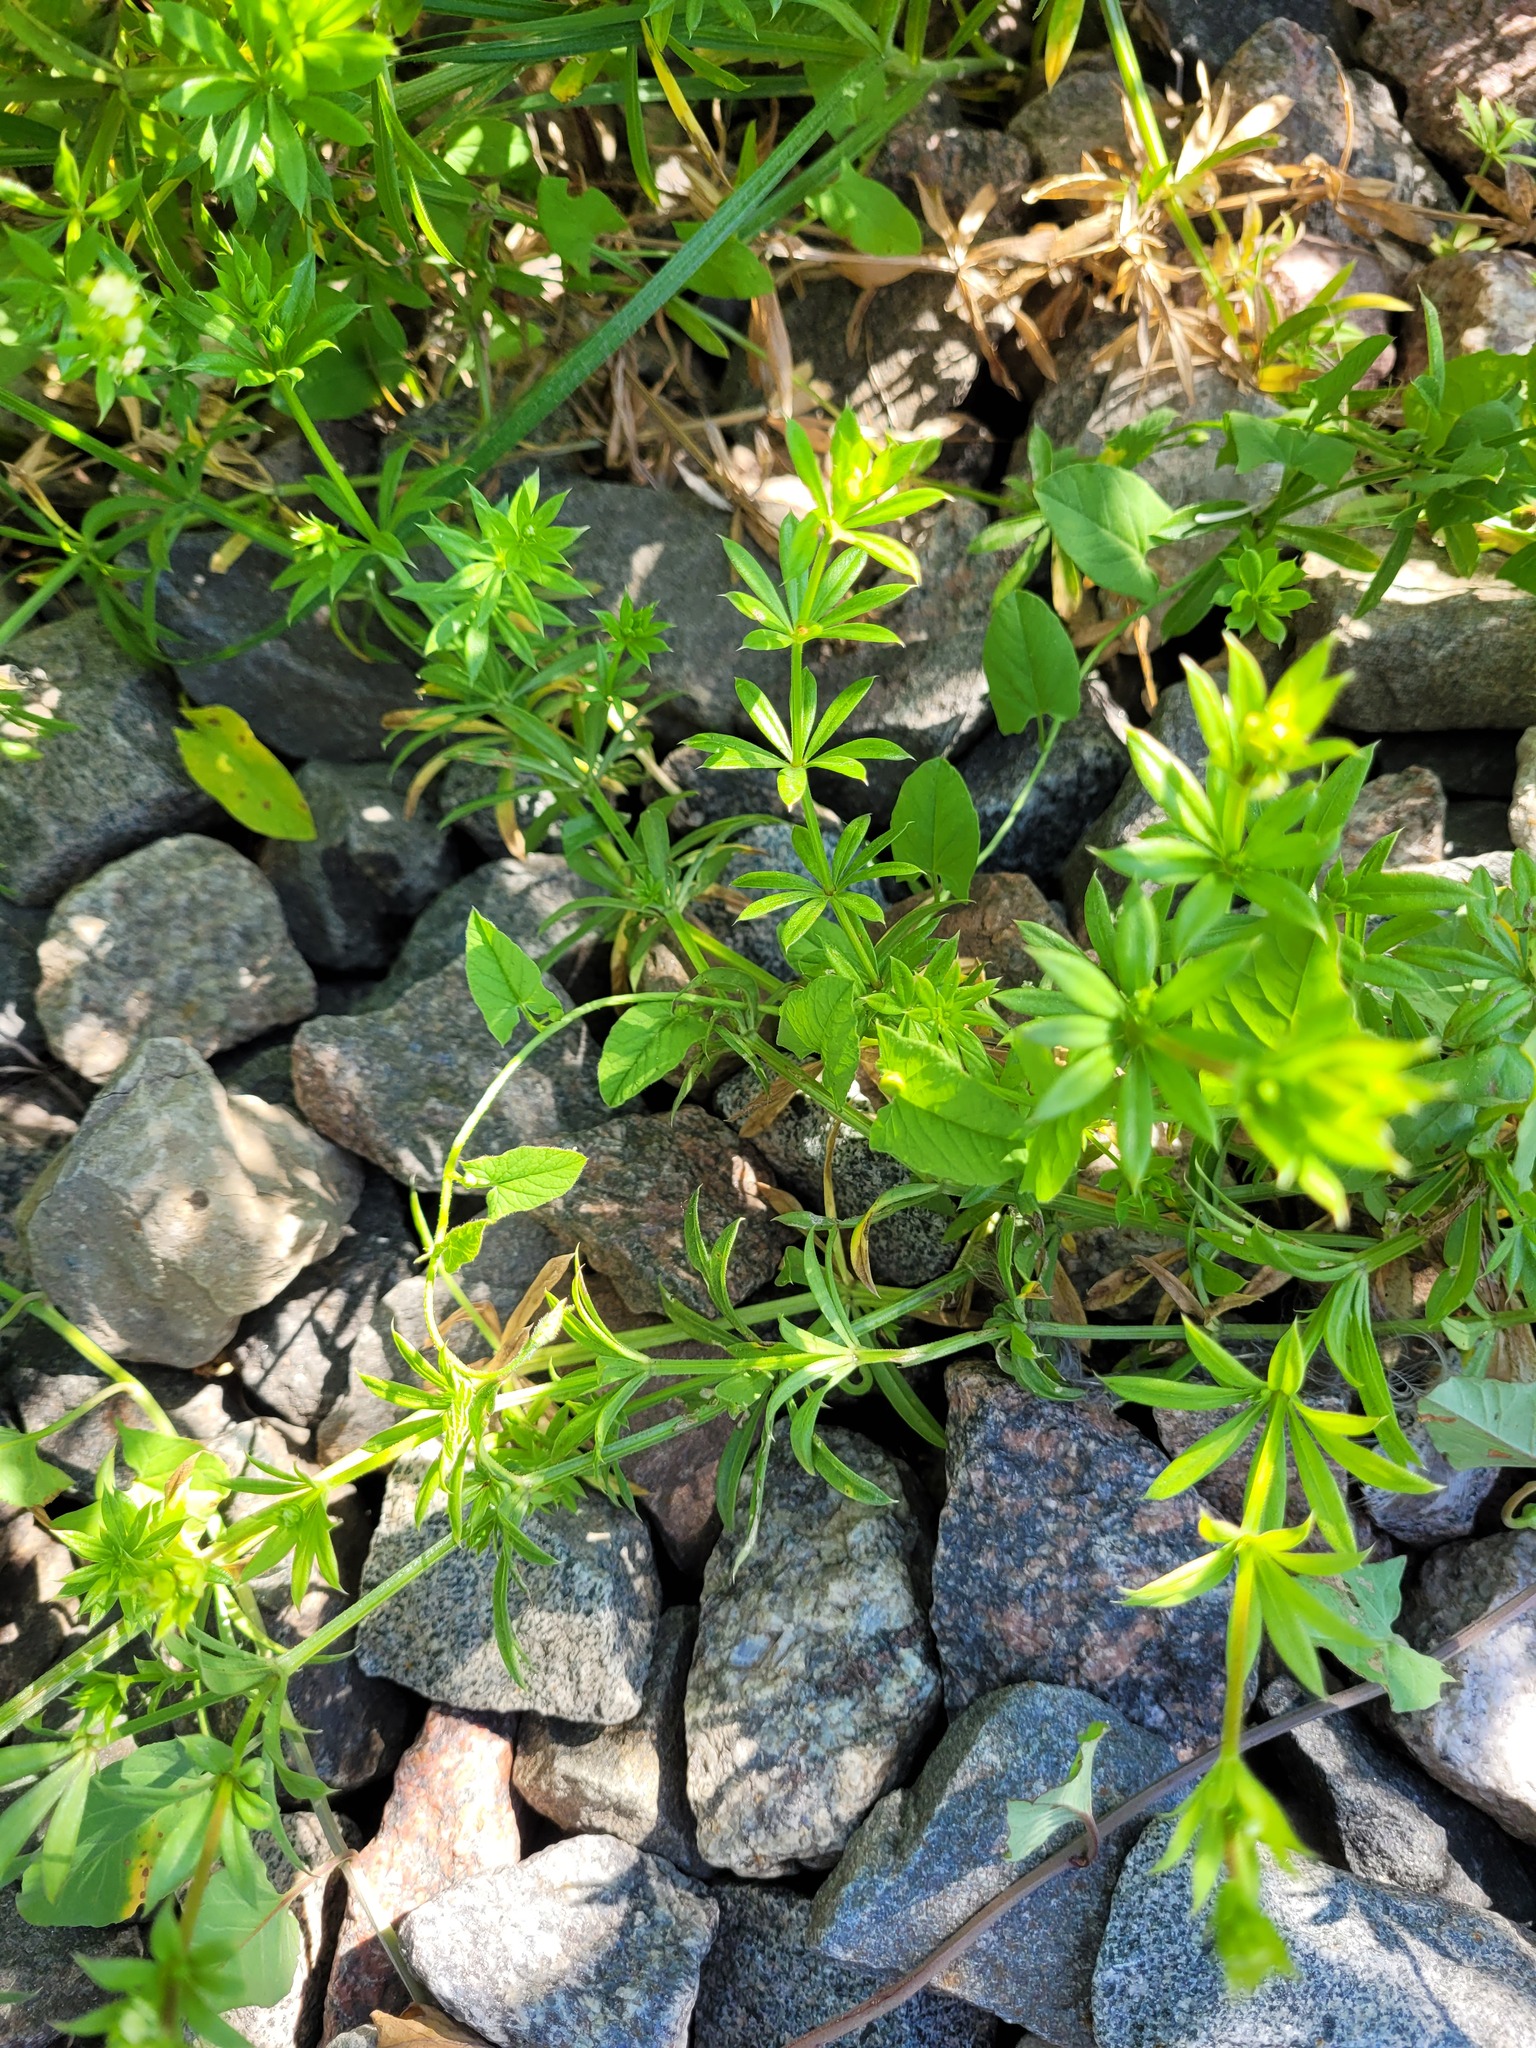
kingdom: Plantae
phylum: Tracheophyta
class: Magnoliopsida
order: Gentianales
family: Rubiaceae
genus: Galium
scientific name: Galium rivale
